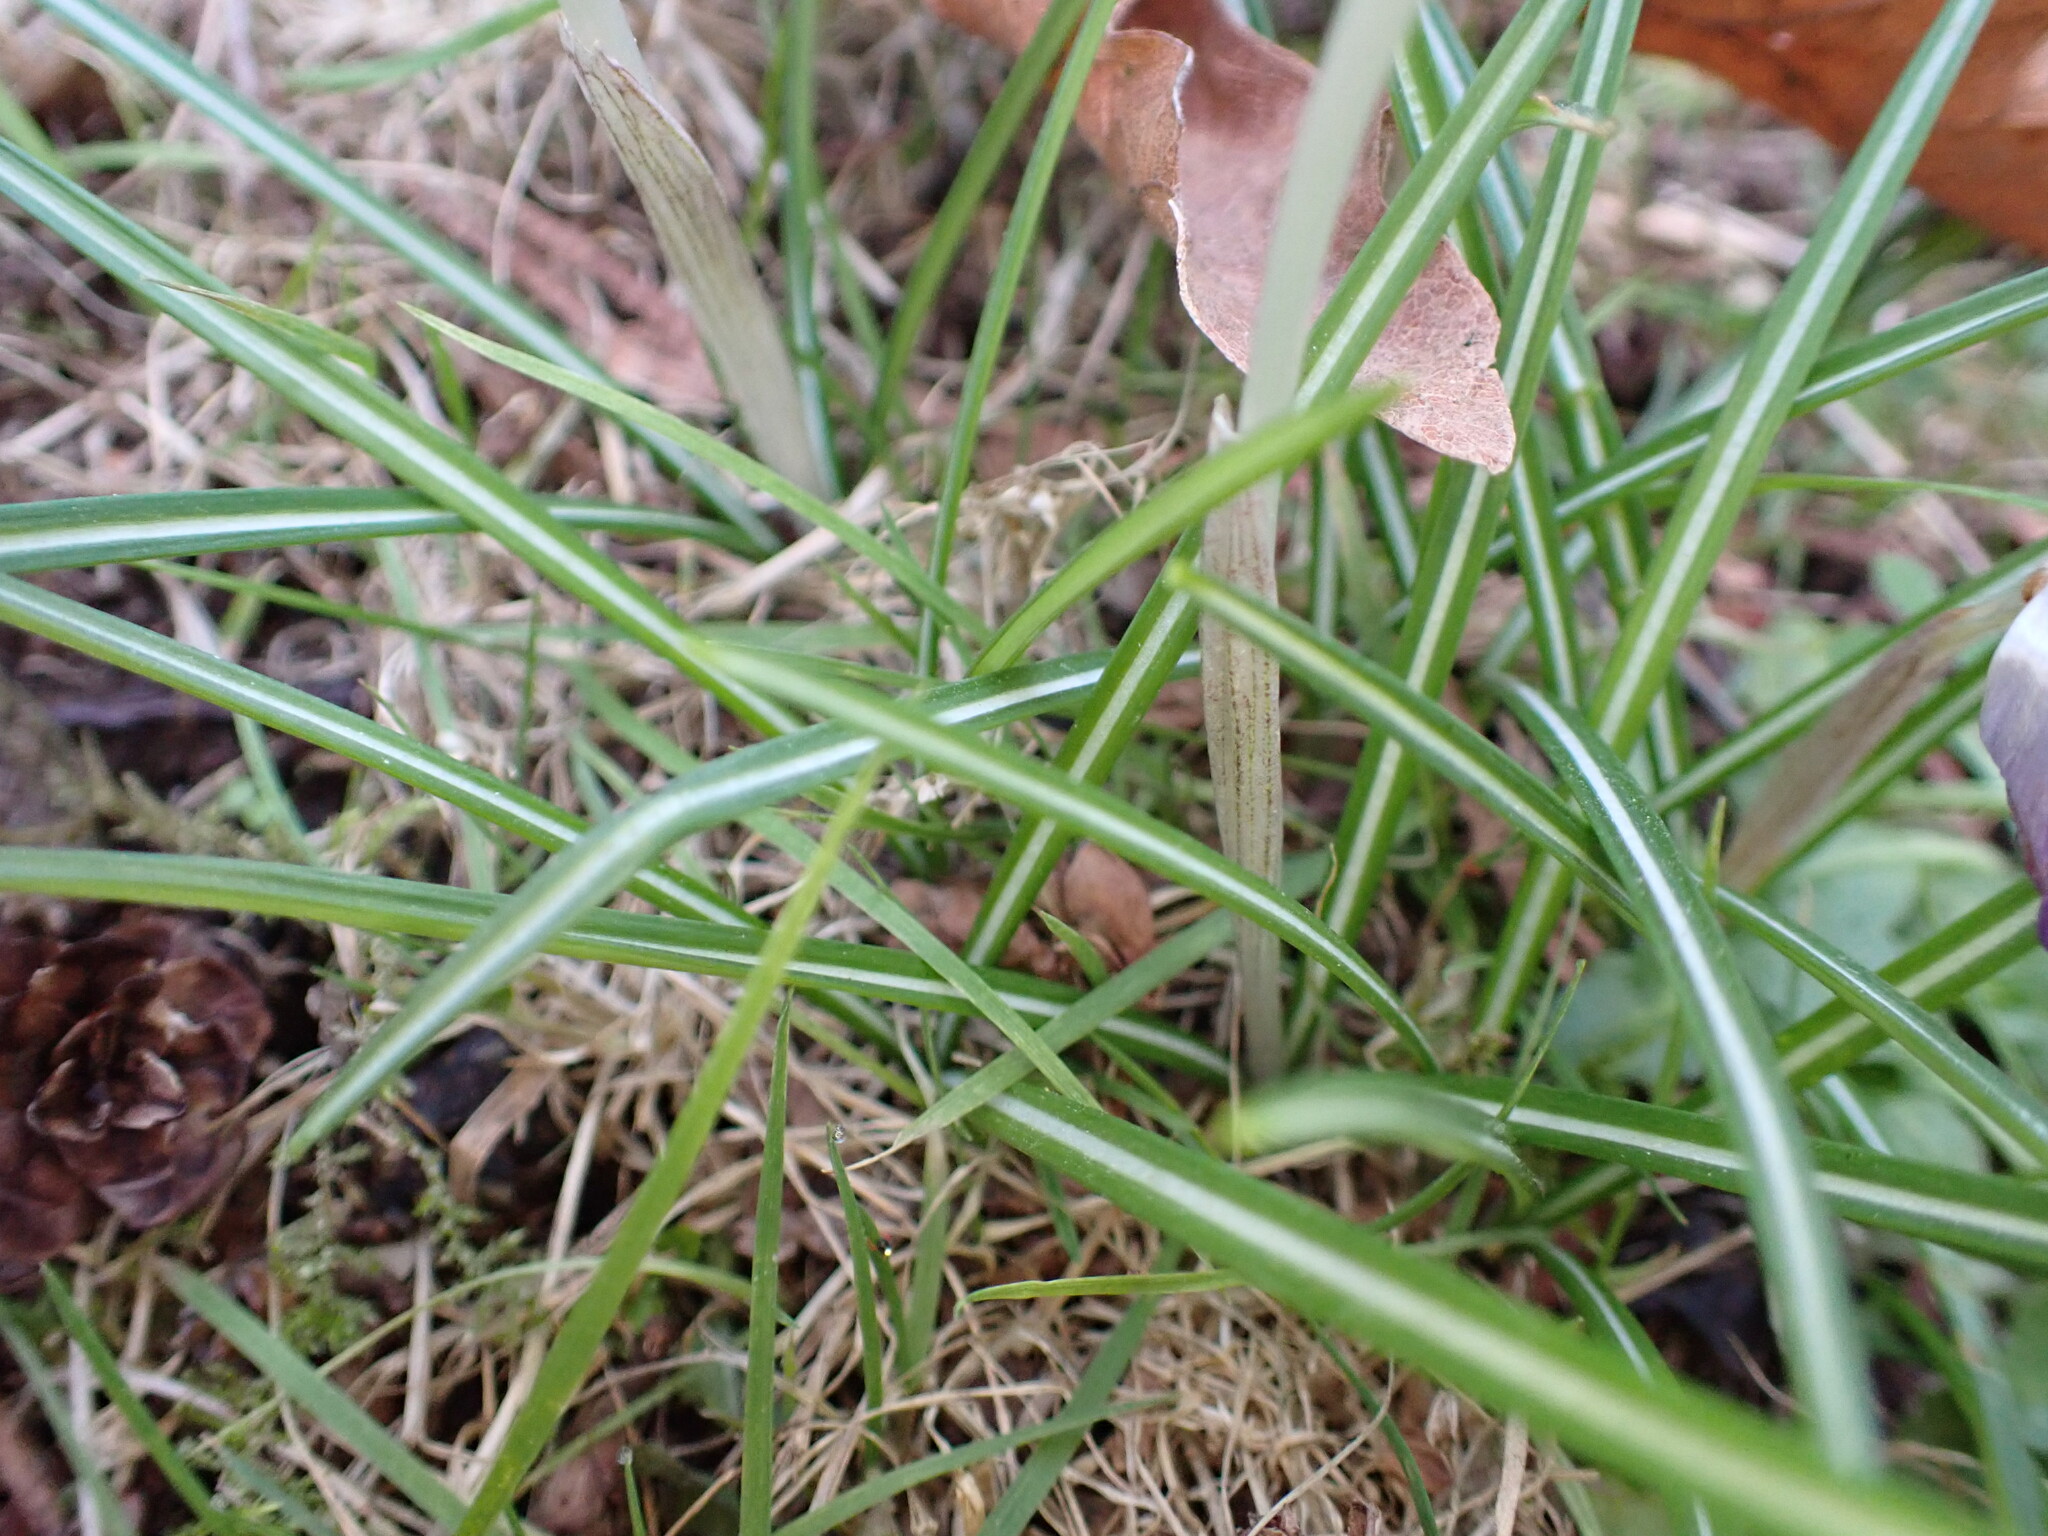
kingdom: Plantae
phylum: Tracheophyta
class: Liliopsida
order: Asparagales
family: Iridaceae
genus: Crocus
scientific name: Crocus tommasinianus
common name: Early crocus
